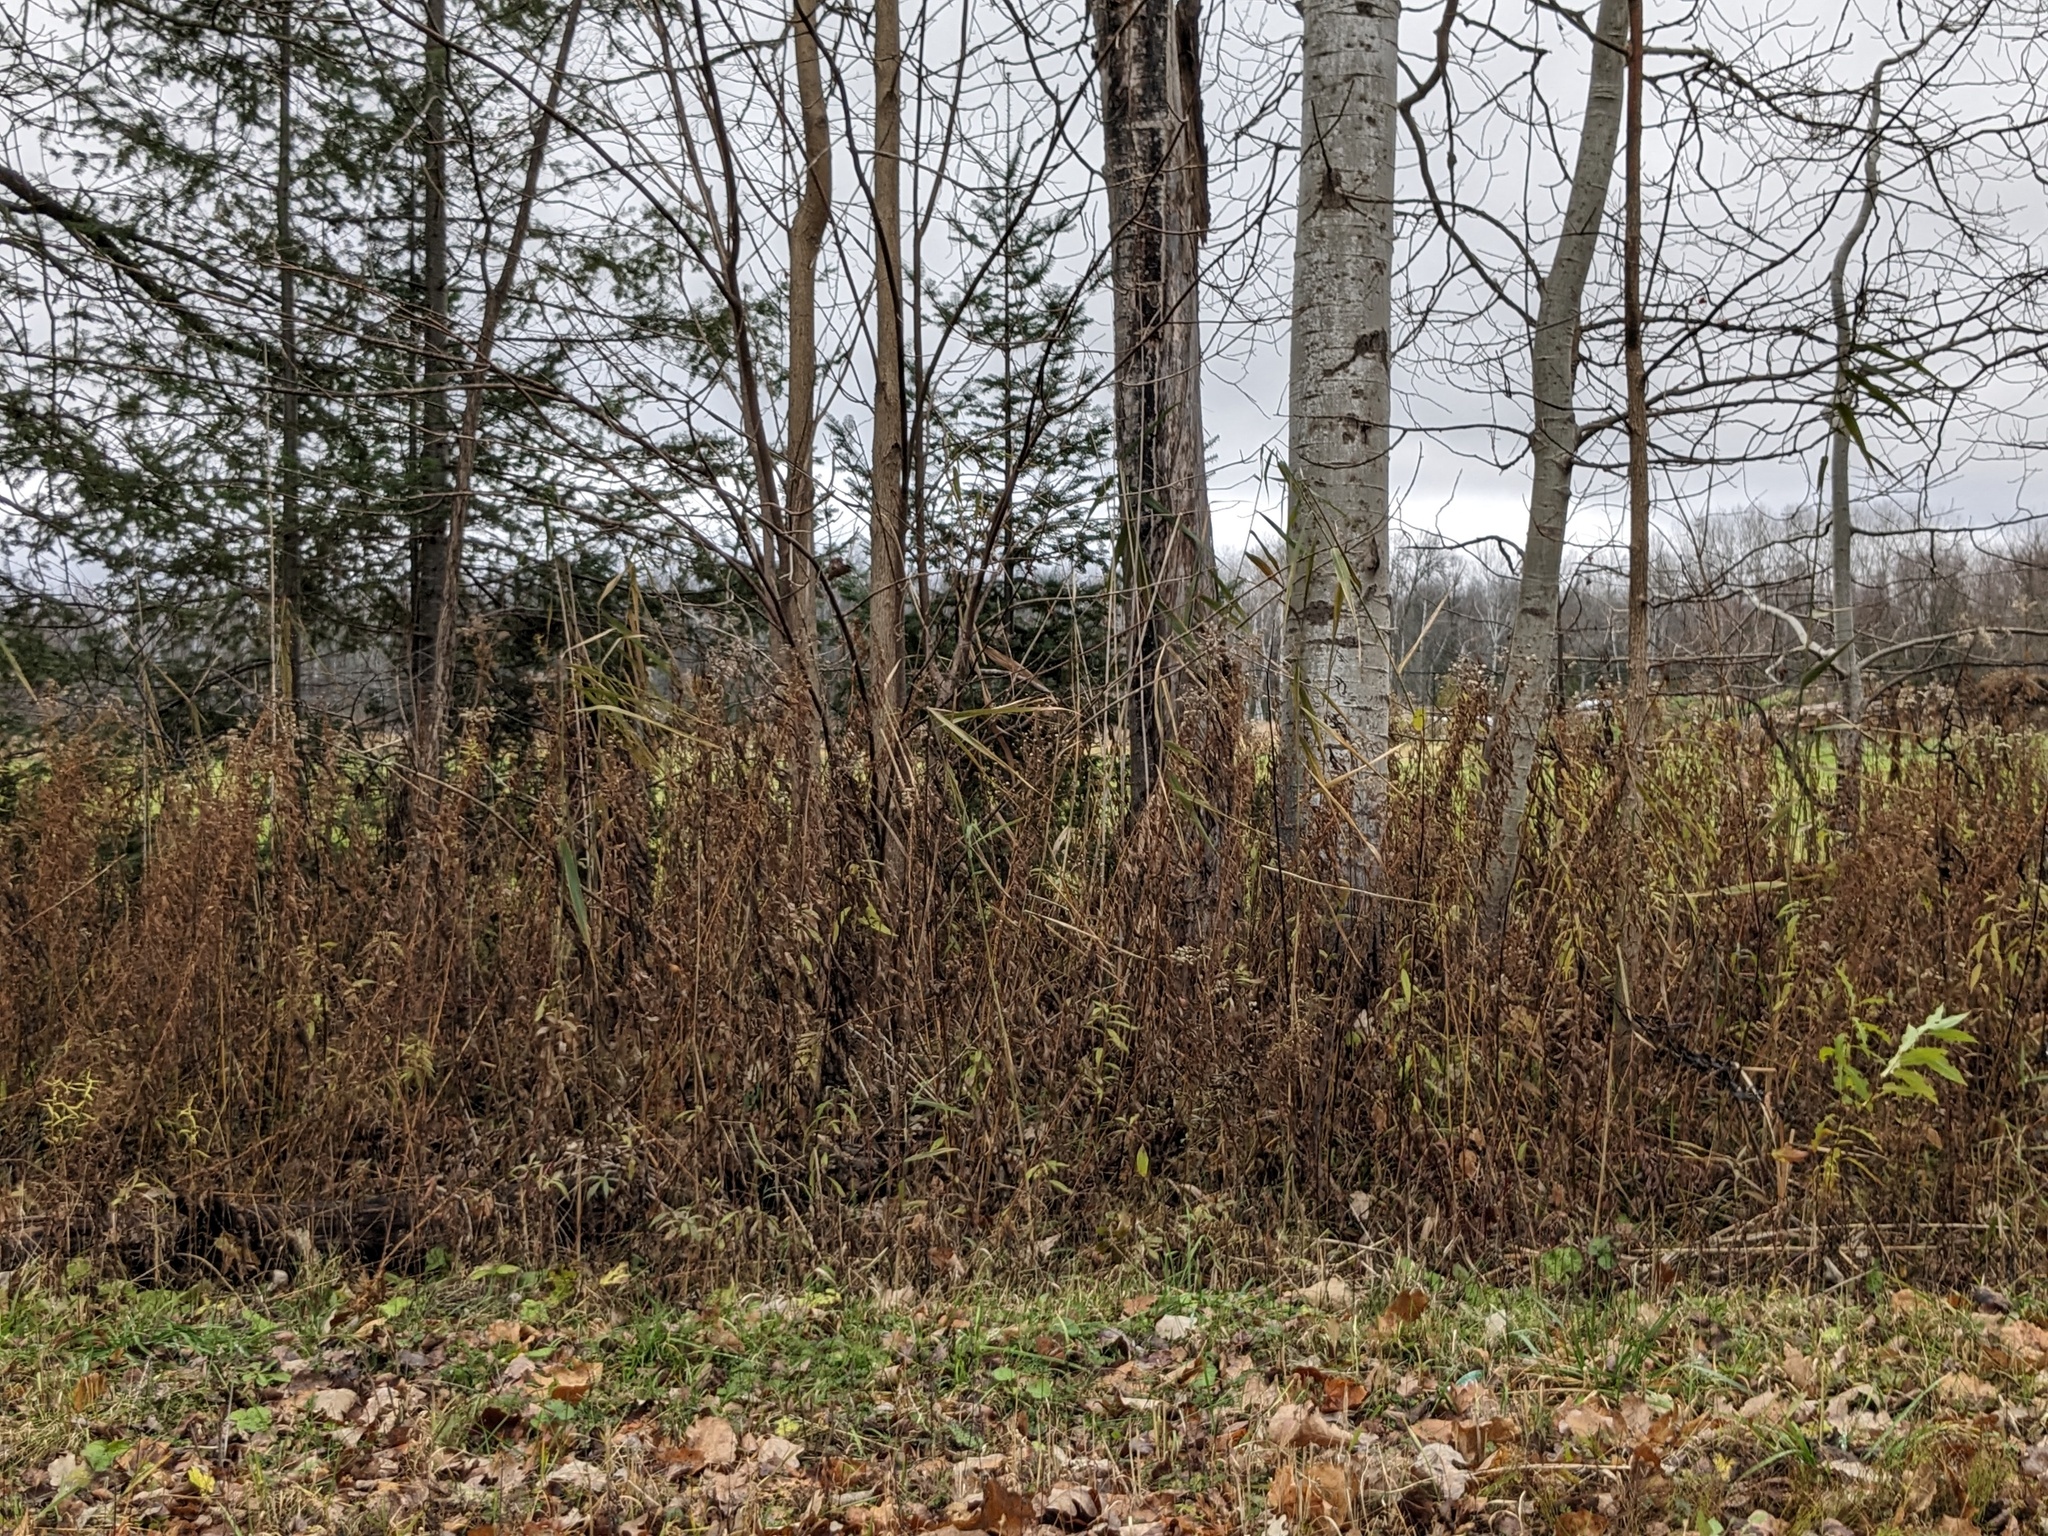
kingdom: Plantae
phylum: Tracheophyta
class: Liliopsida
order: Poales
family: Poaceae
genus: Phragmites
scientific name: Phragmites australis
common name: Common reed
